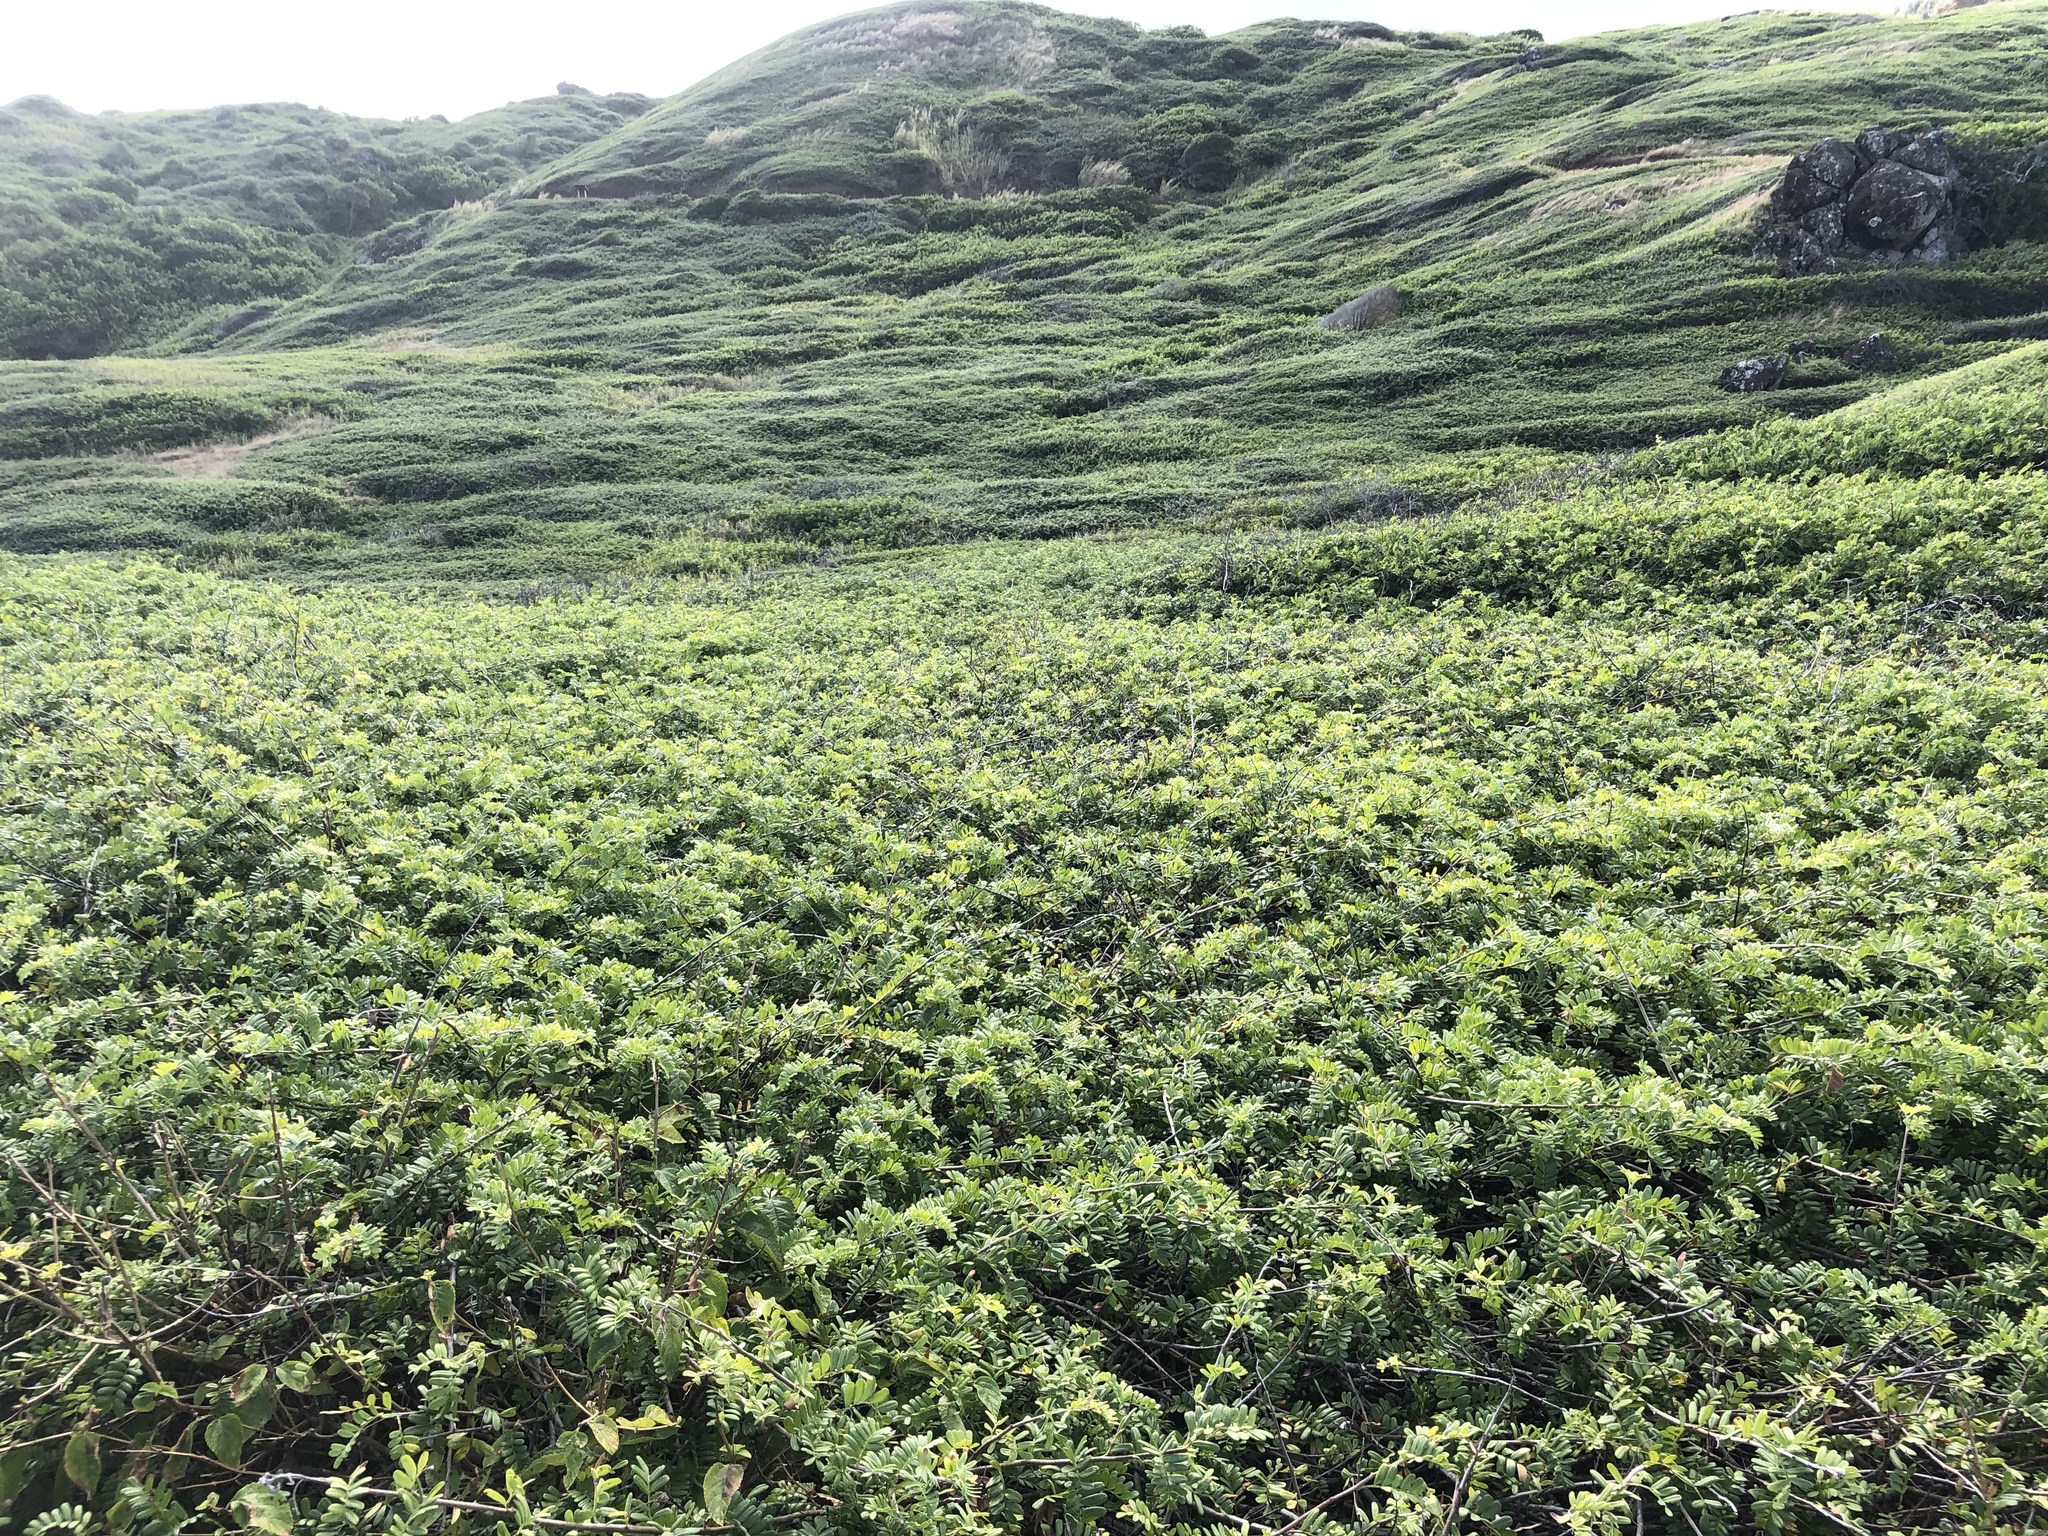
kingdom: Plantae
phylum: Tracheophyta
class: Magnoliopsida
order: Rosales
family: Rosaceae
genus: Osteomeles
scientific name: Osteomeles anthyllidifolia
